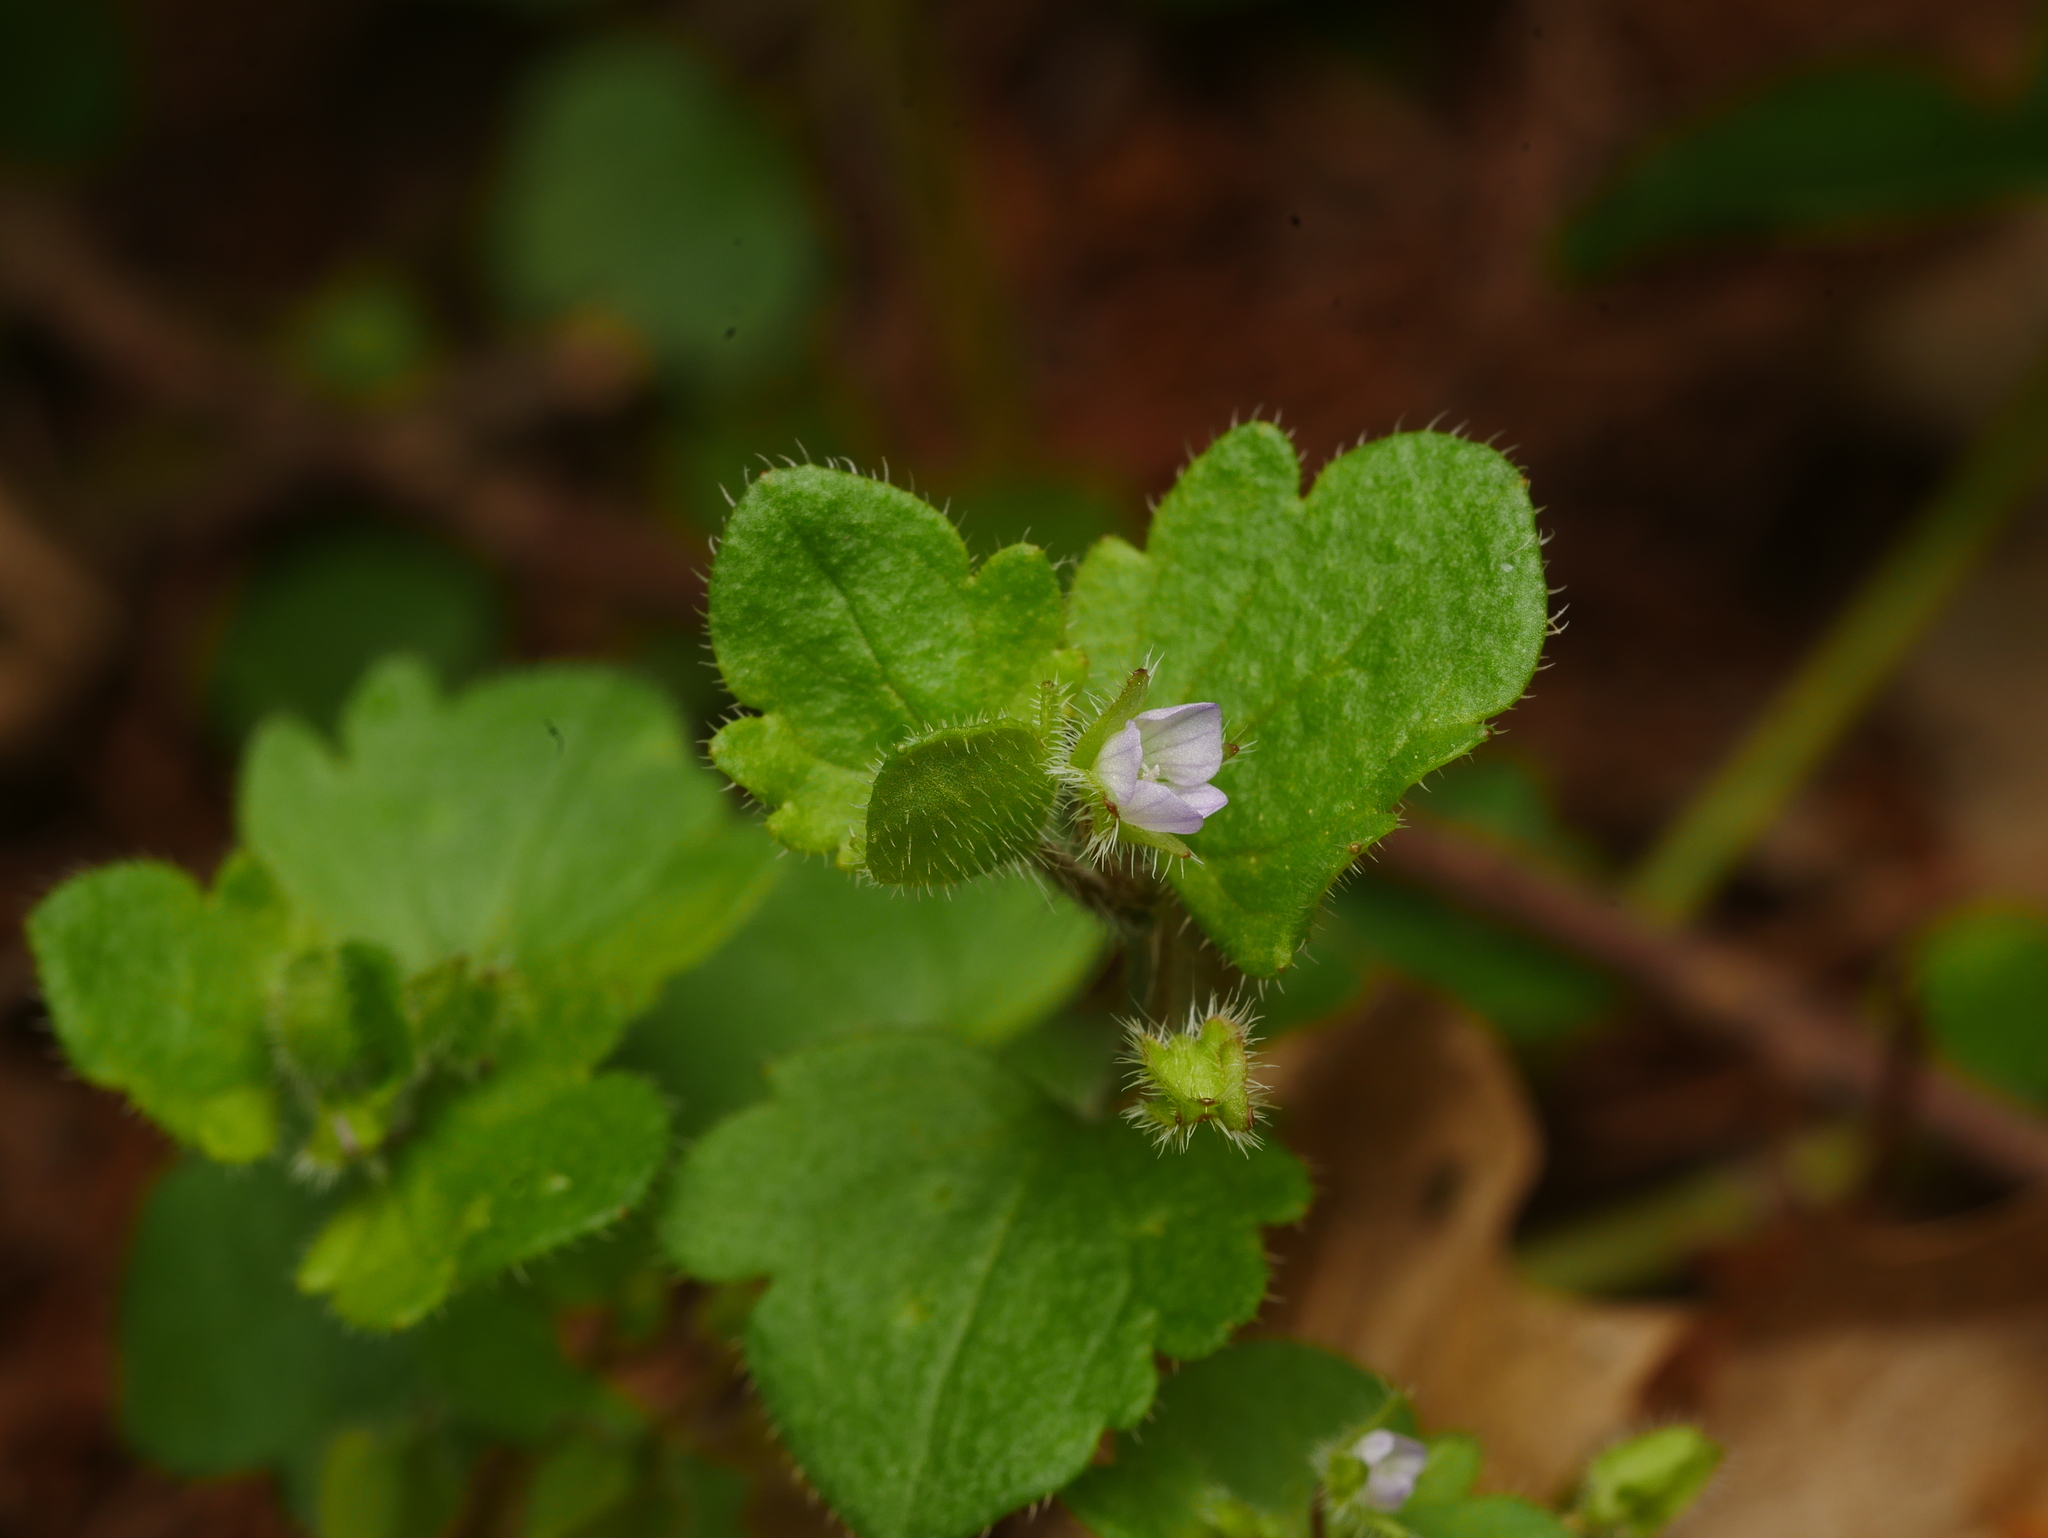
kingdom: Plantae
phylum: Tracheophyta
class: Magnoliopsida
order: Lamiales
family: Plantaginaceae
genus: Veronica
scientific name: Veronica sublobata
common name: False ivy-leaved speedwell
